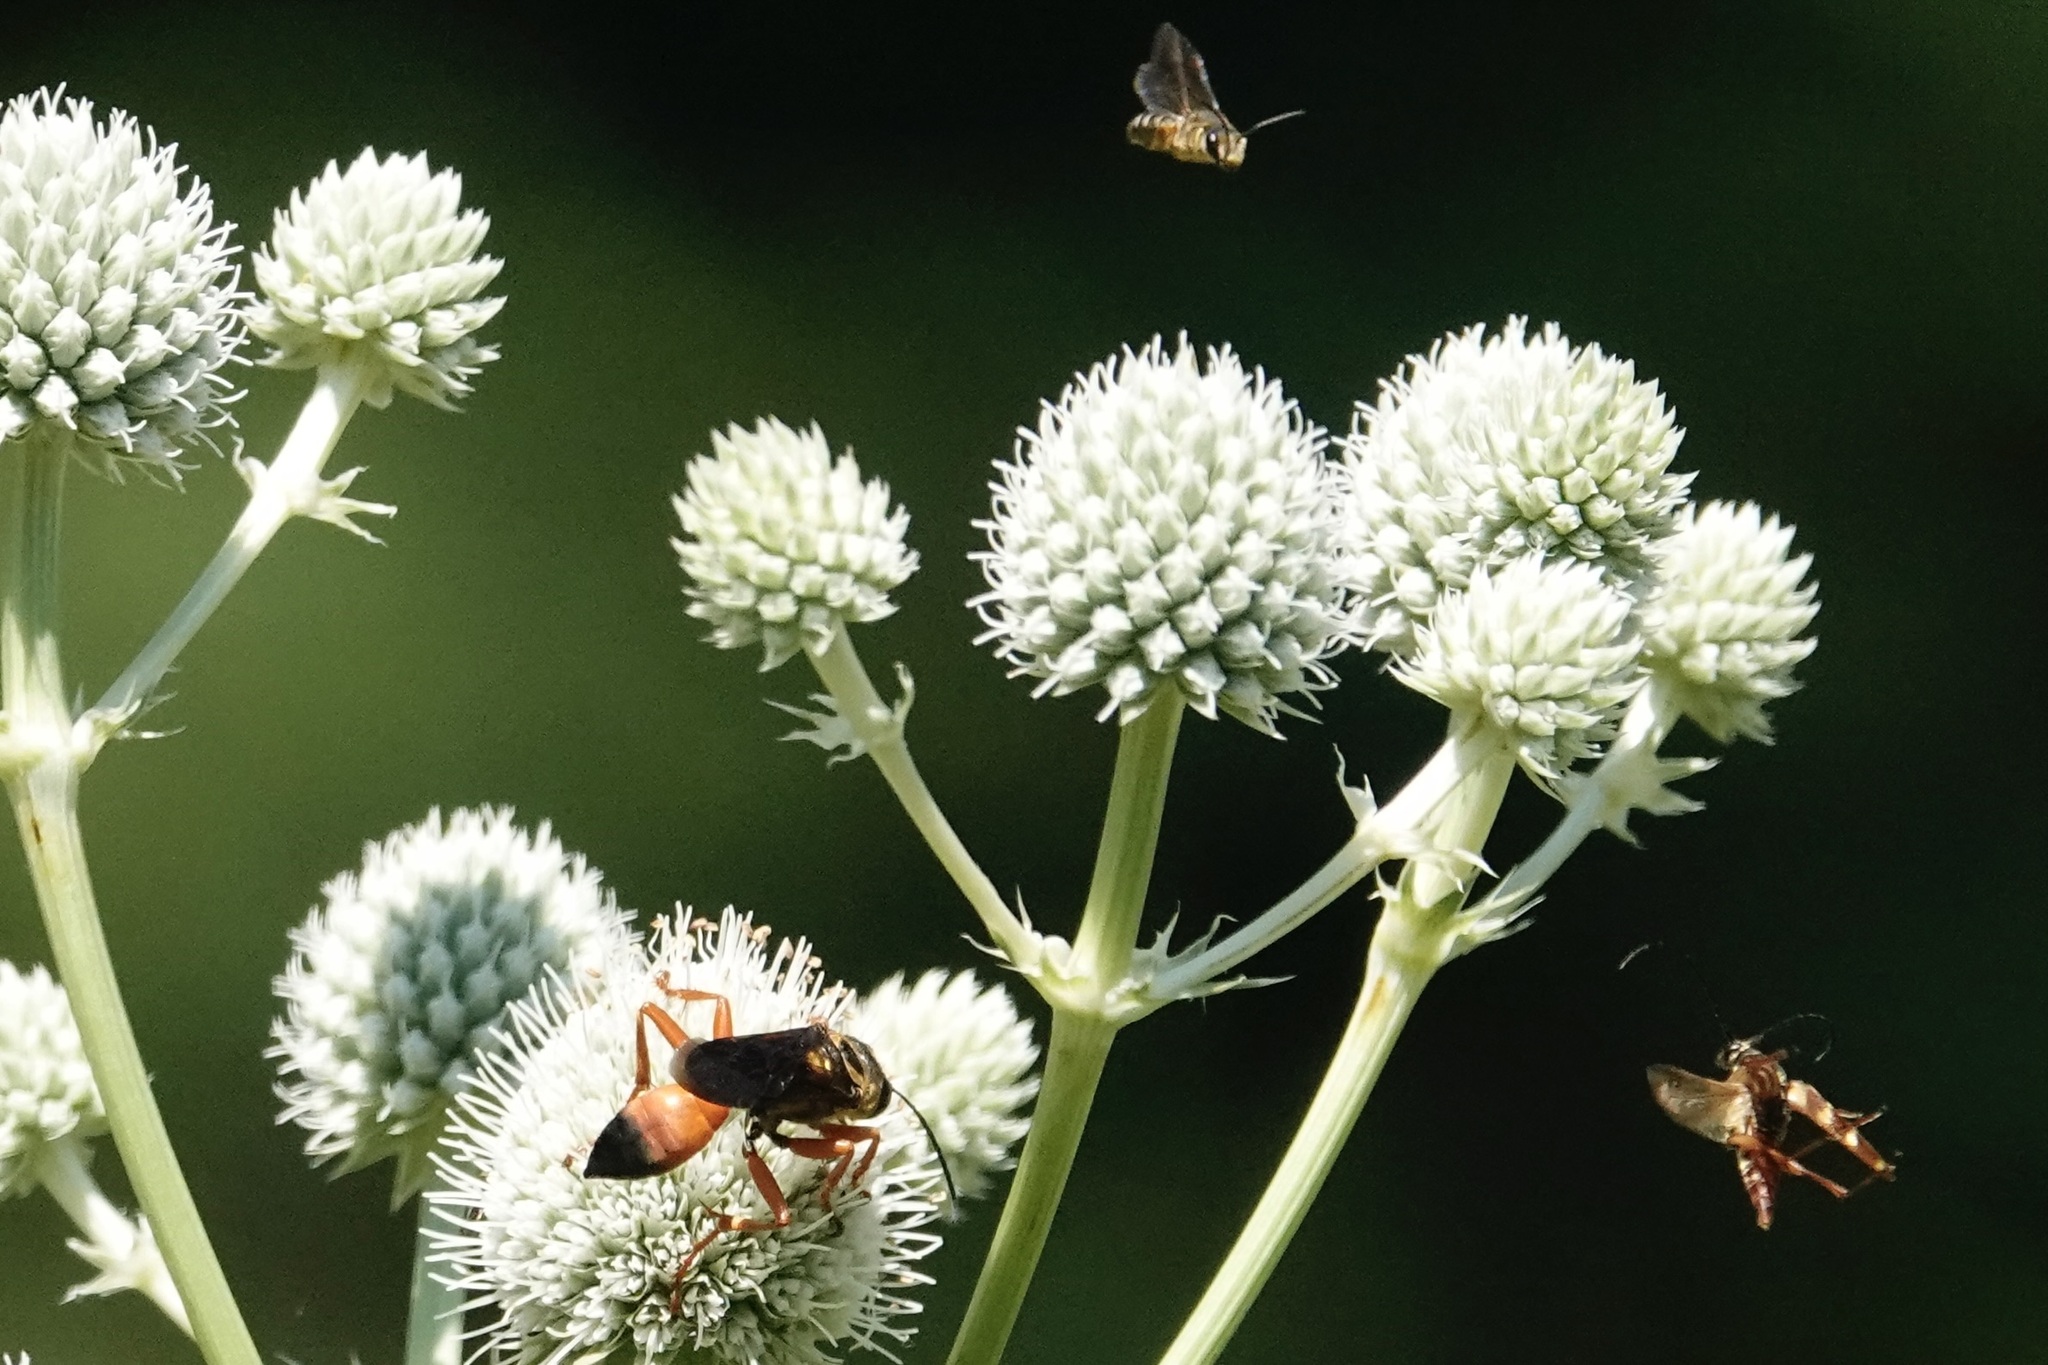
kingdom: Animalia
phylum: Arthropoda
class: Insecta
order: Hymenoptera
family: Sphecidae
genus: Sphex
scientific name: Sphex ichneumoneus
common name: Great golden digger wasp
